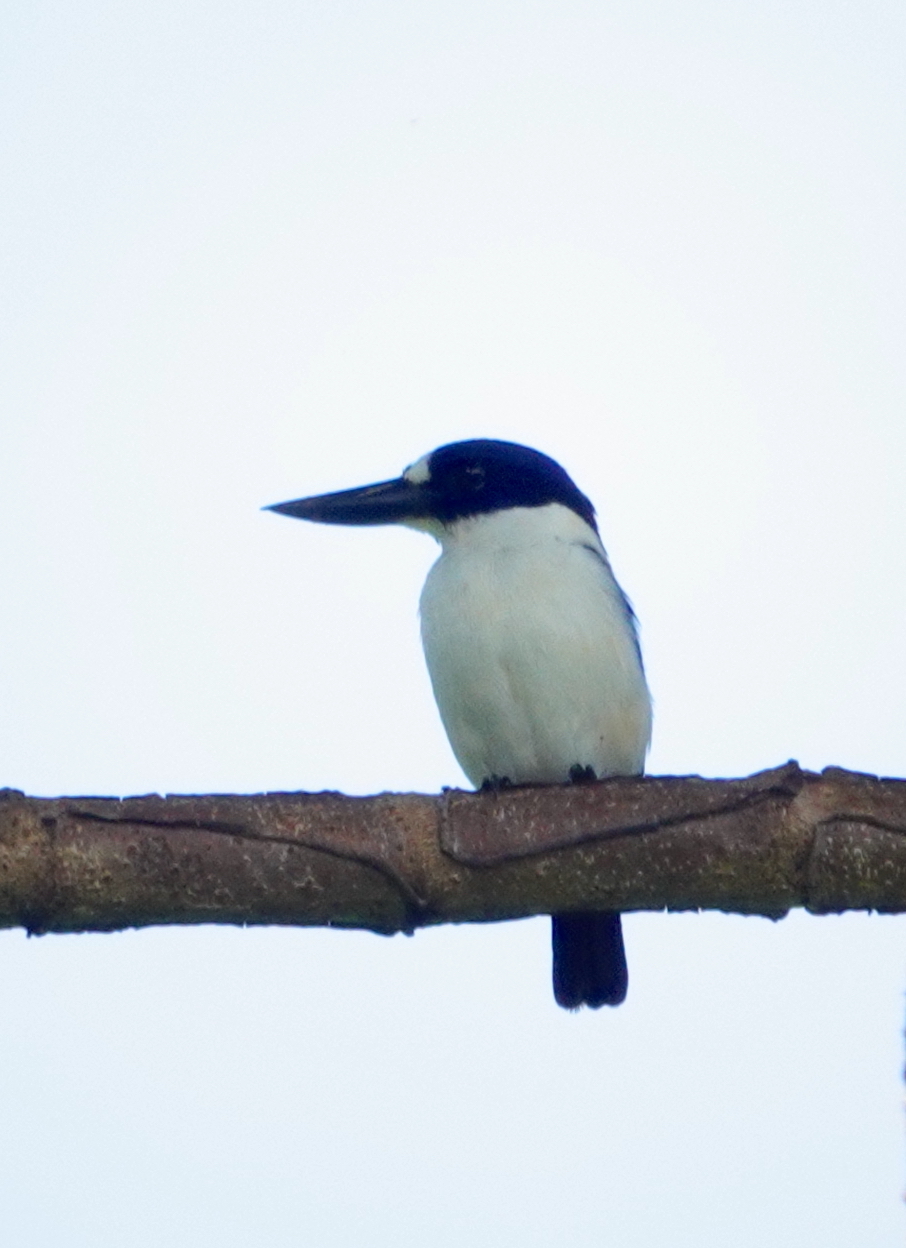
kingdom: Animalia
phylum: Chordata
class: Aves
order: Coraciiformes
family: Alcedinidae
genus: Todiramphus
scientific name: Todiramphus diops
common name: Blue-and-white kingfisher
